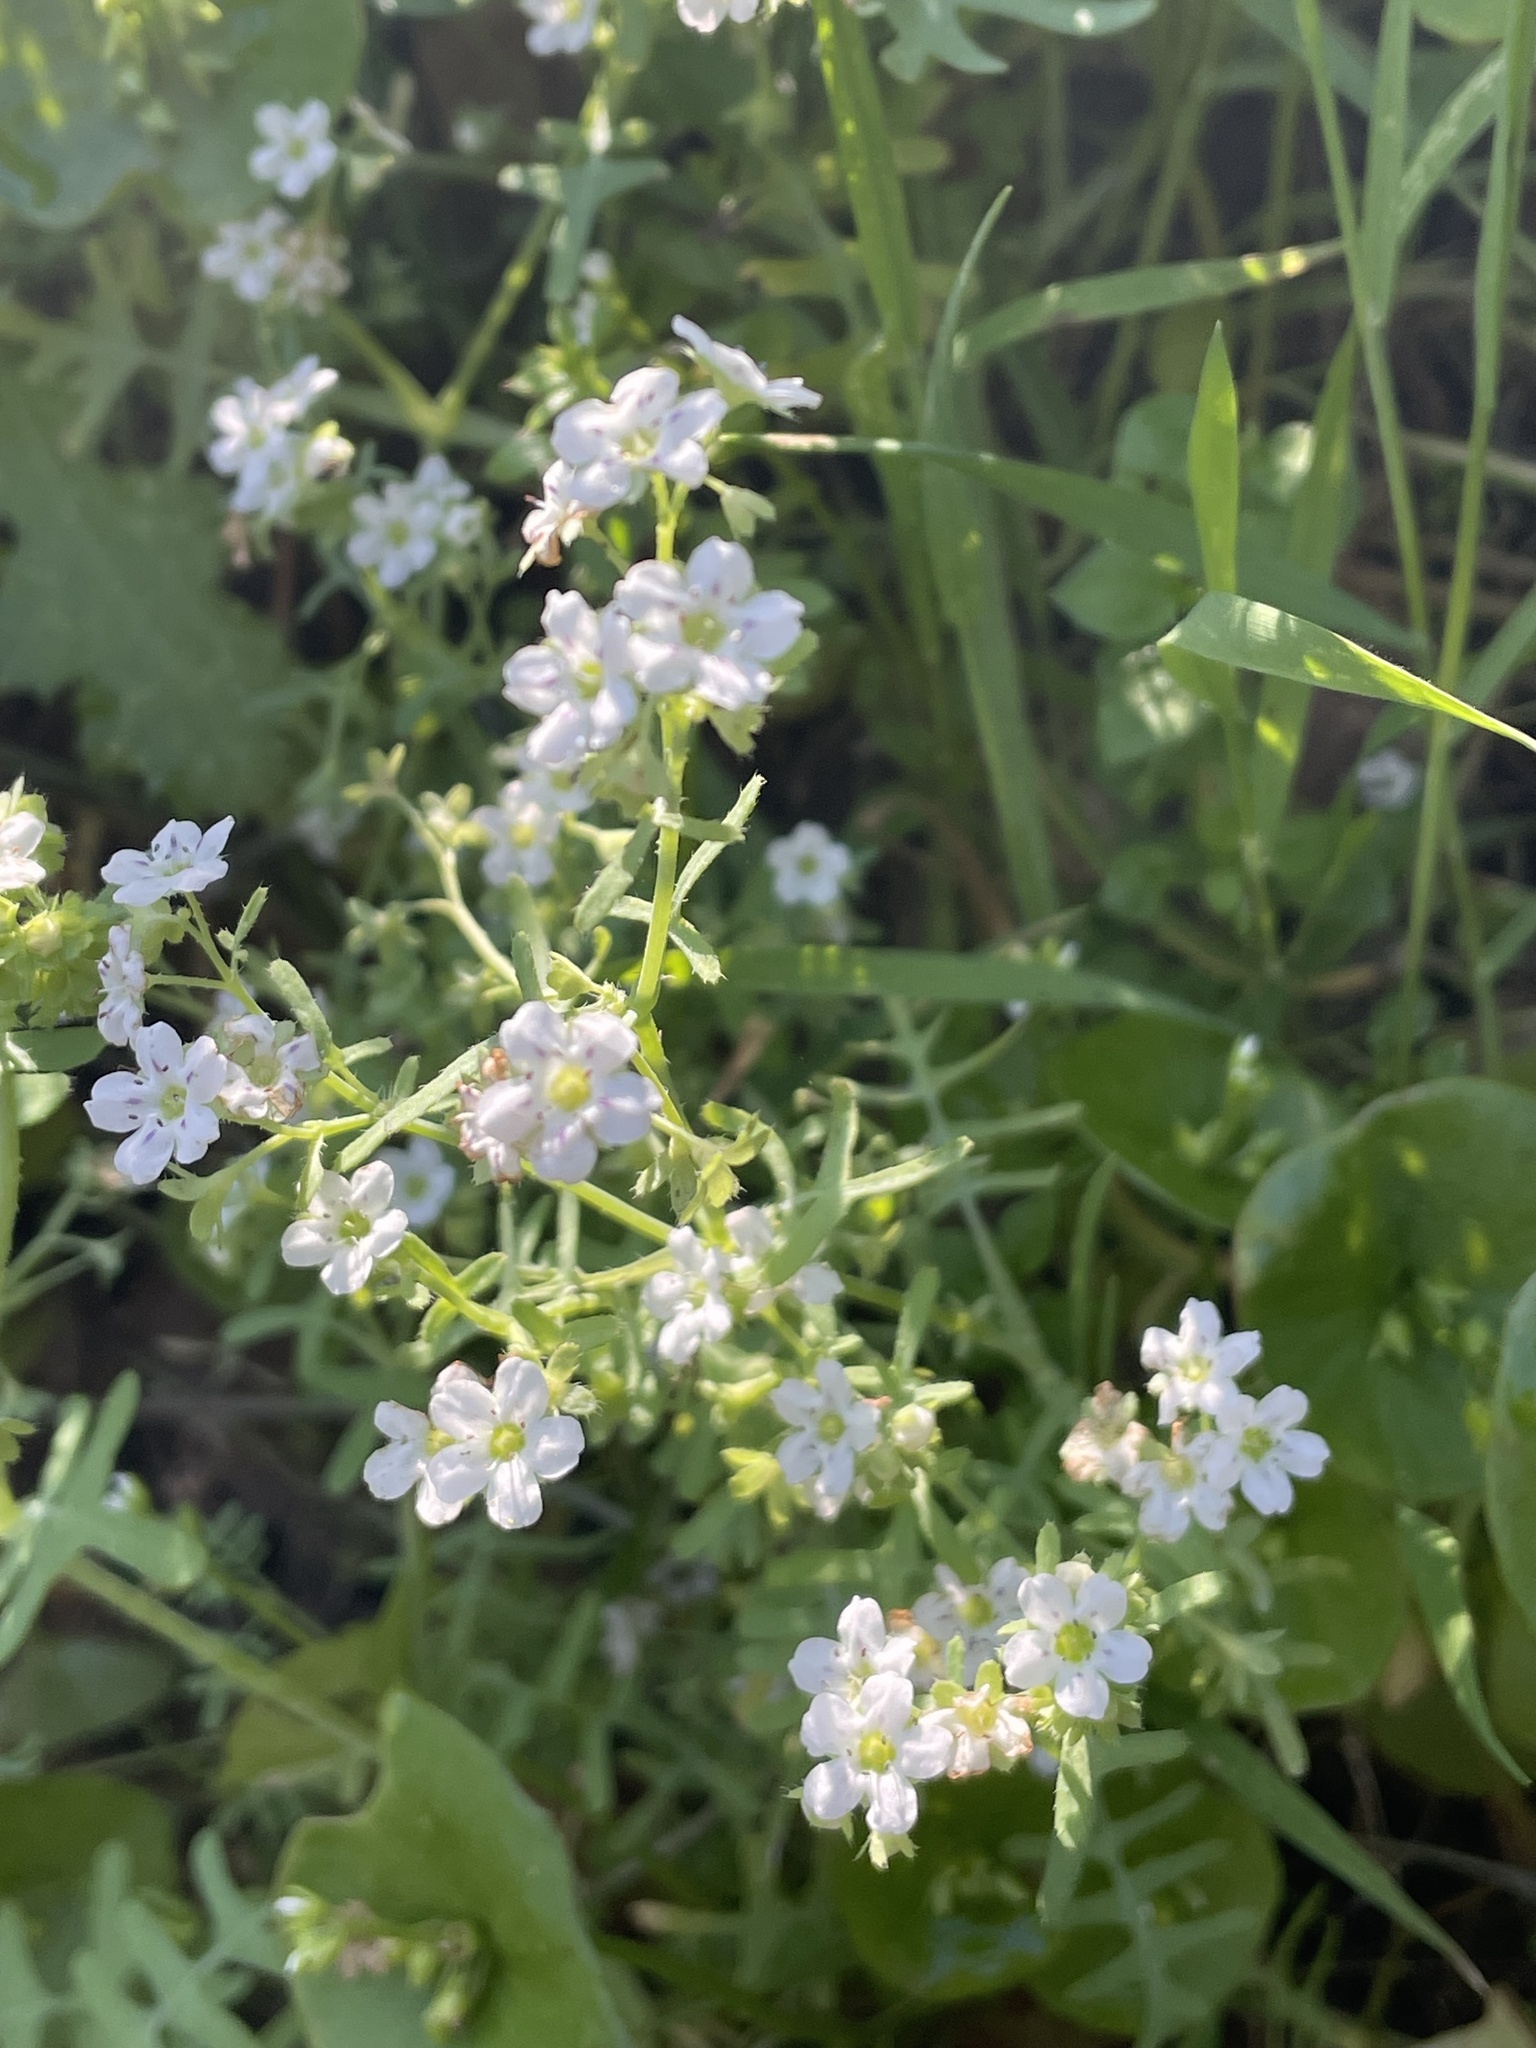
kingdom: Plantae
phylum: Tracheophyta
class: Magnoliopsida
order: Boraginales
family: Hydrophyllaceae
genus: Pholistoma
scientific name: Pholistoma membranaceum
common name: White fiesta-flower
